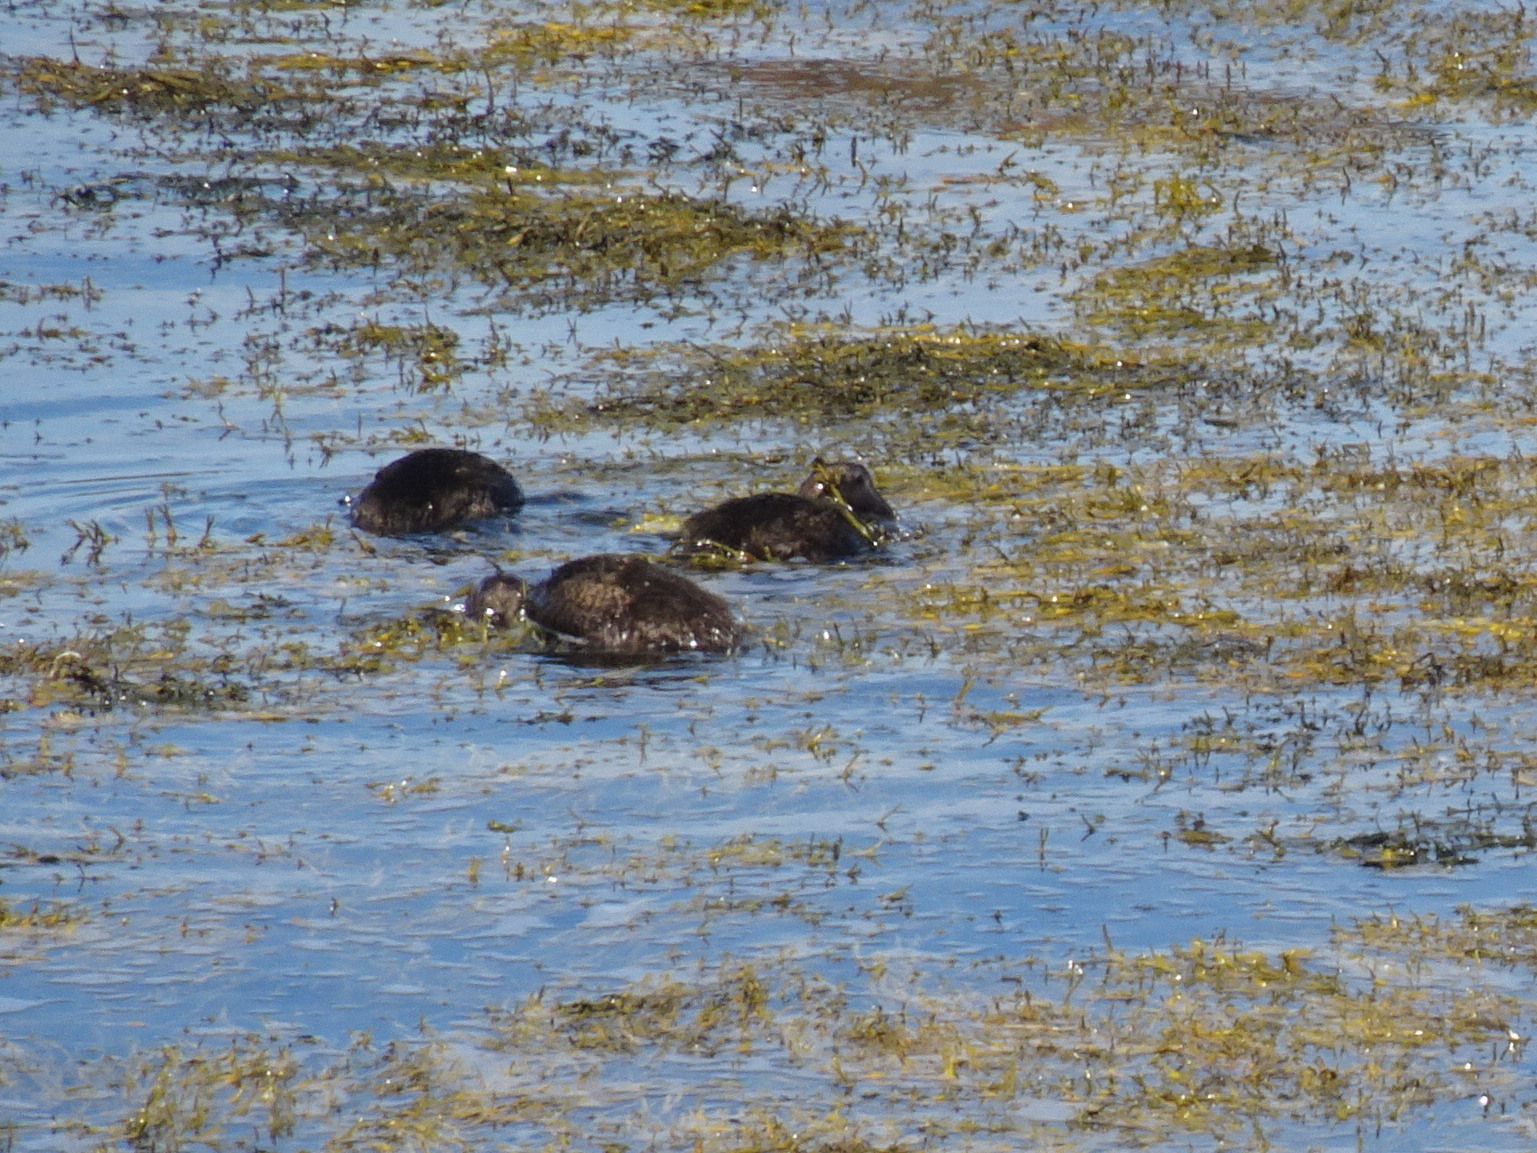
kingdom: Animalia
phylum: Chordata
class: Aves
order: Anseriformes
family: Anatidae
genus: Somateria
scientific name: Somateria mollissima
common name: Common eider
